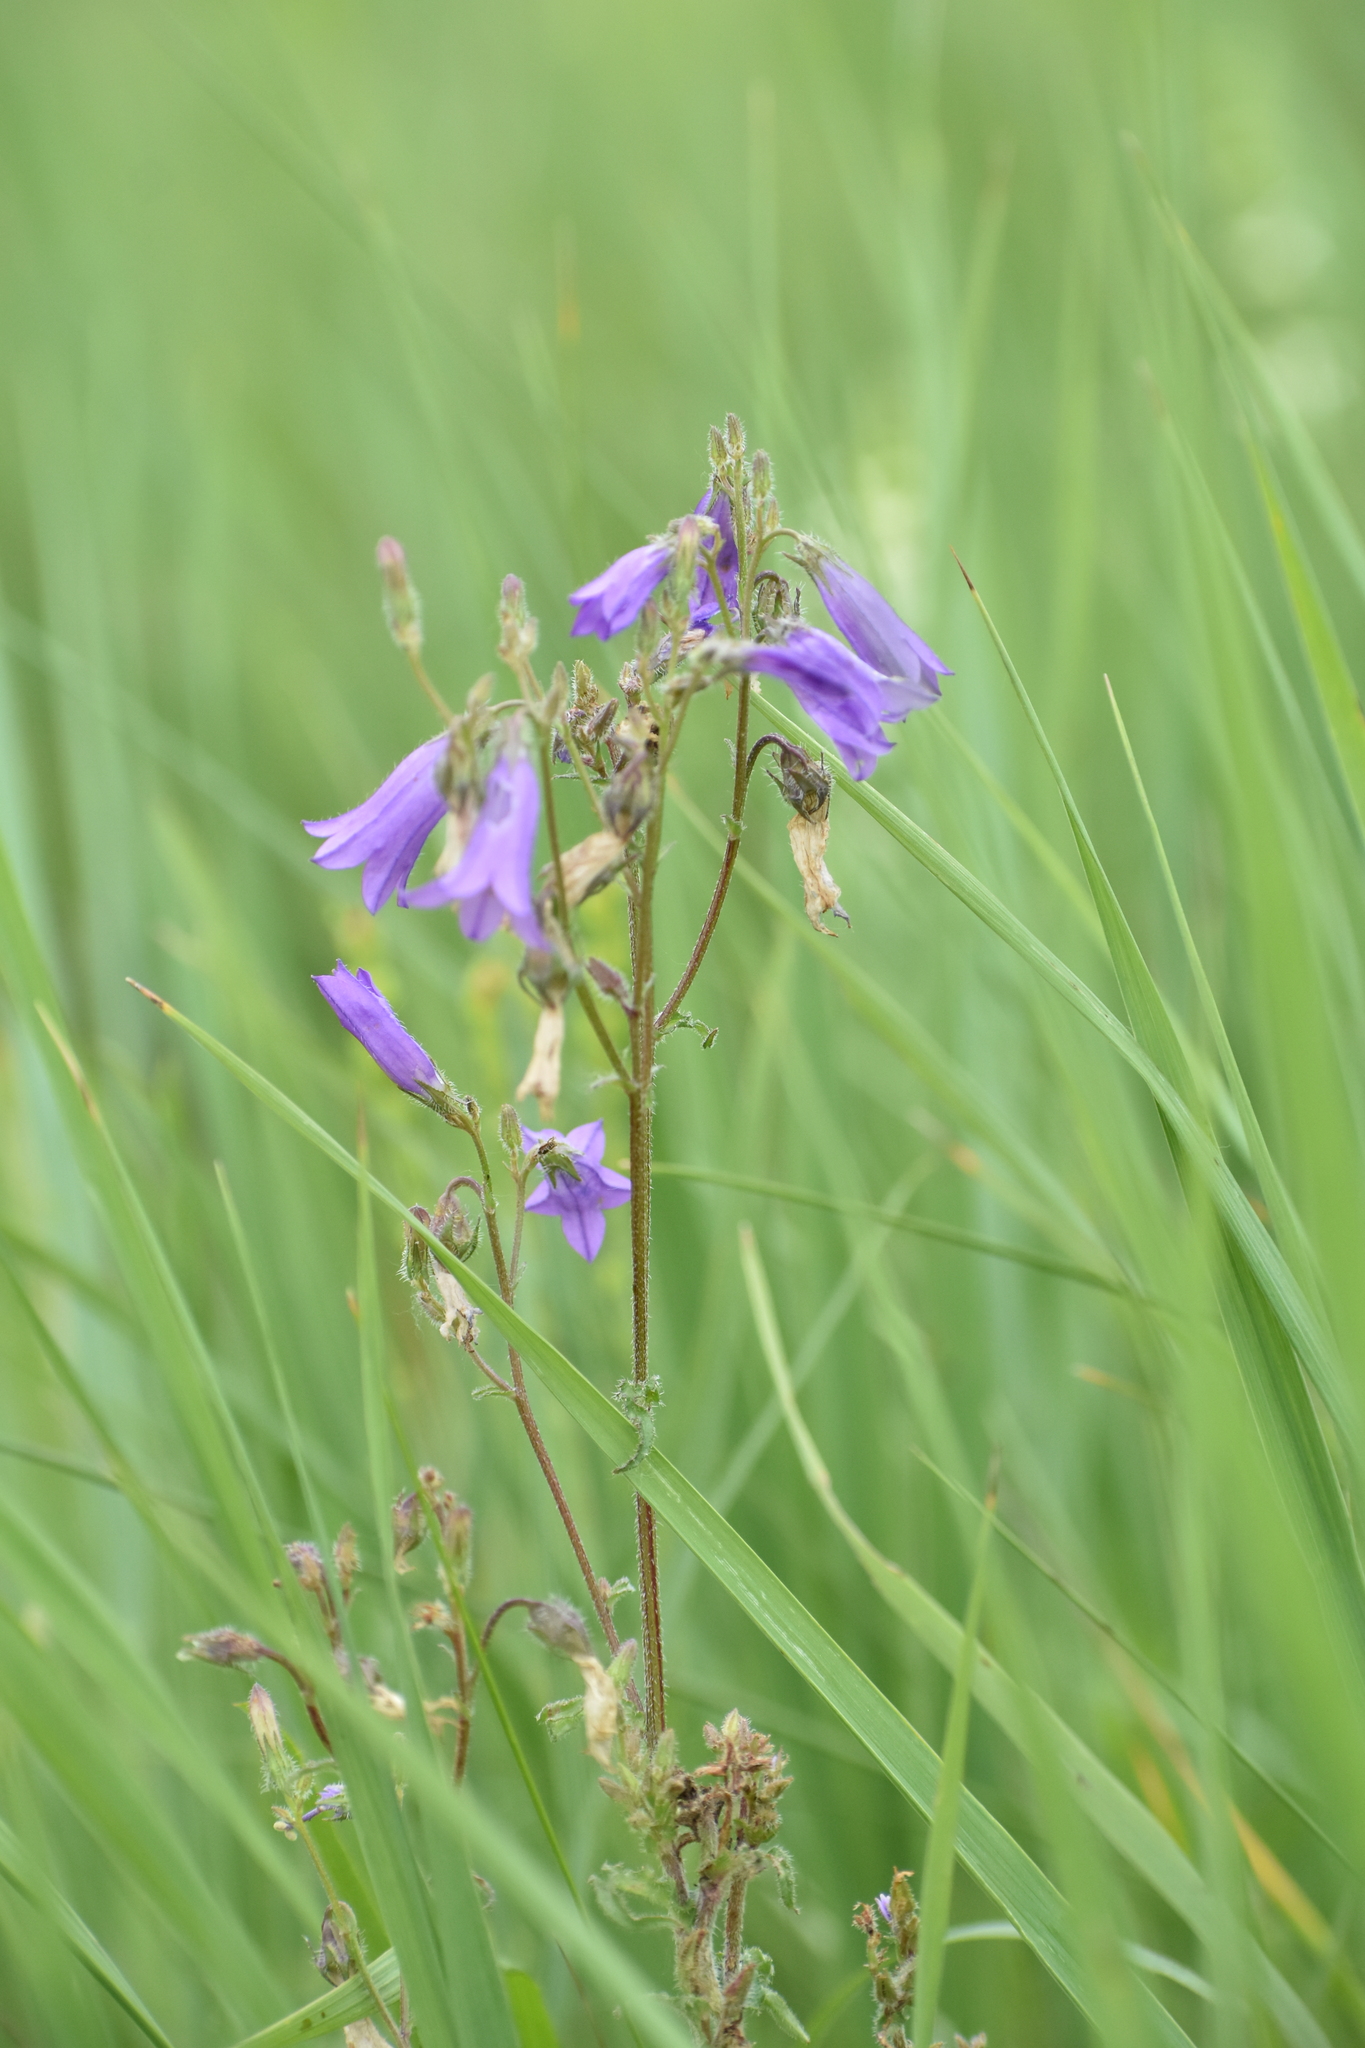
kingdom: Plantae
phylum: Tracheophyta
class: Magnoliopsida
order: Asterales
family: Campanulaceae
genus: Campanula
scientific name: Campanula sibirica
